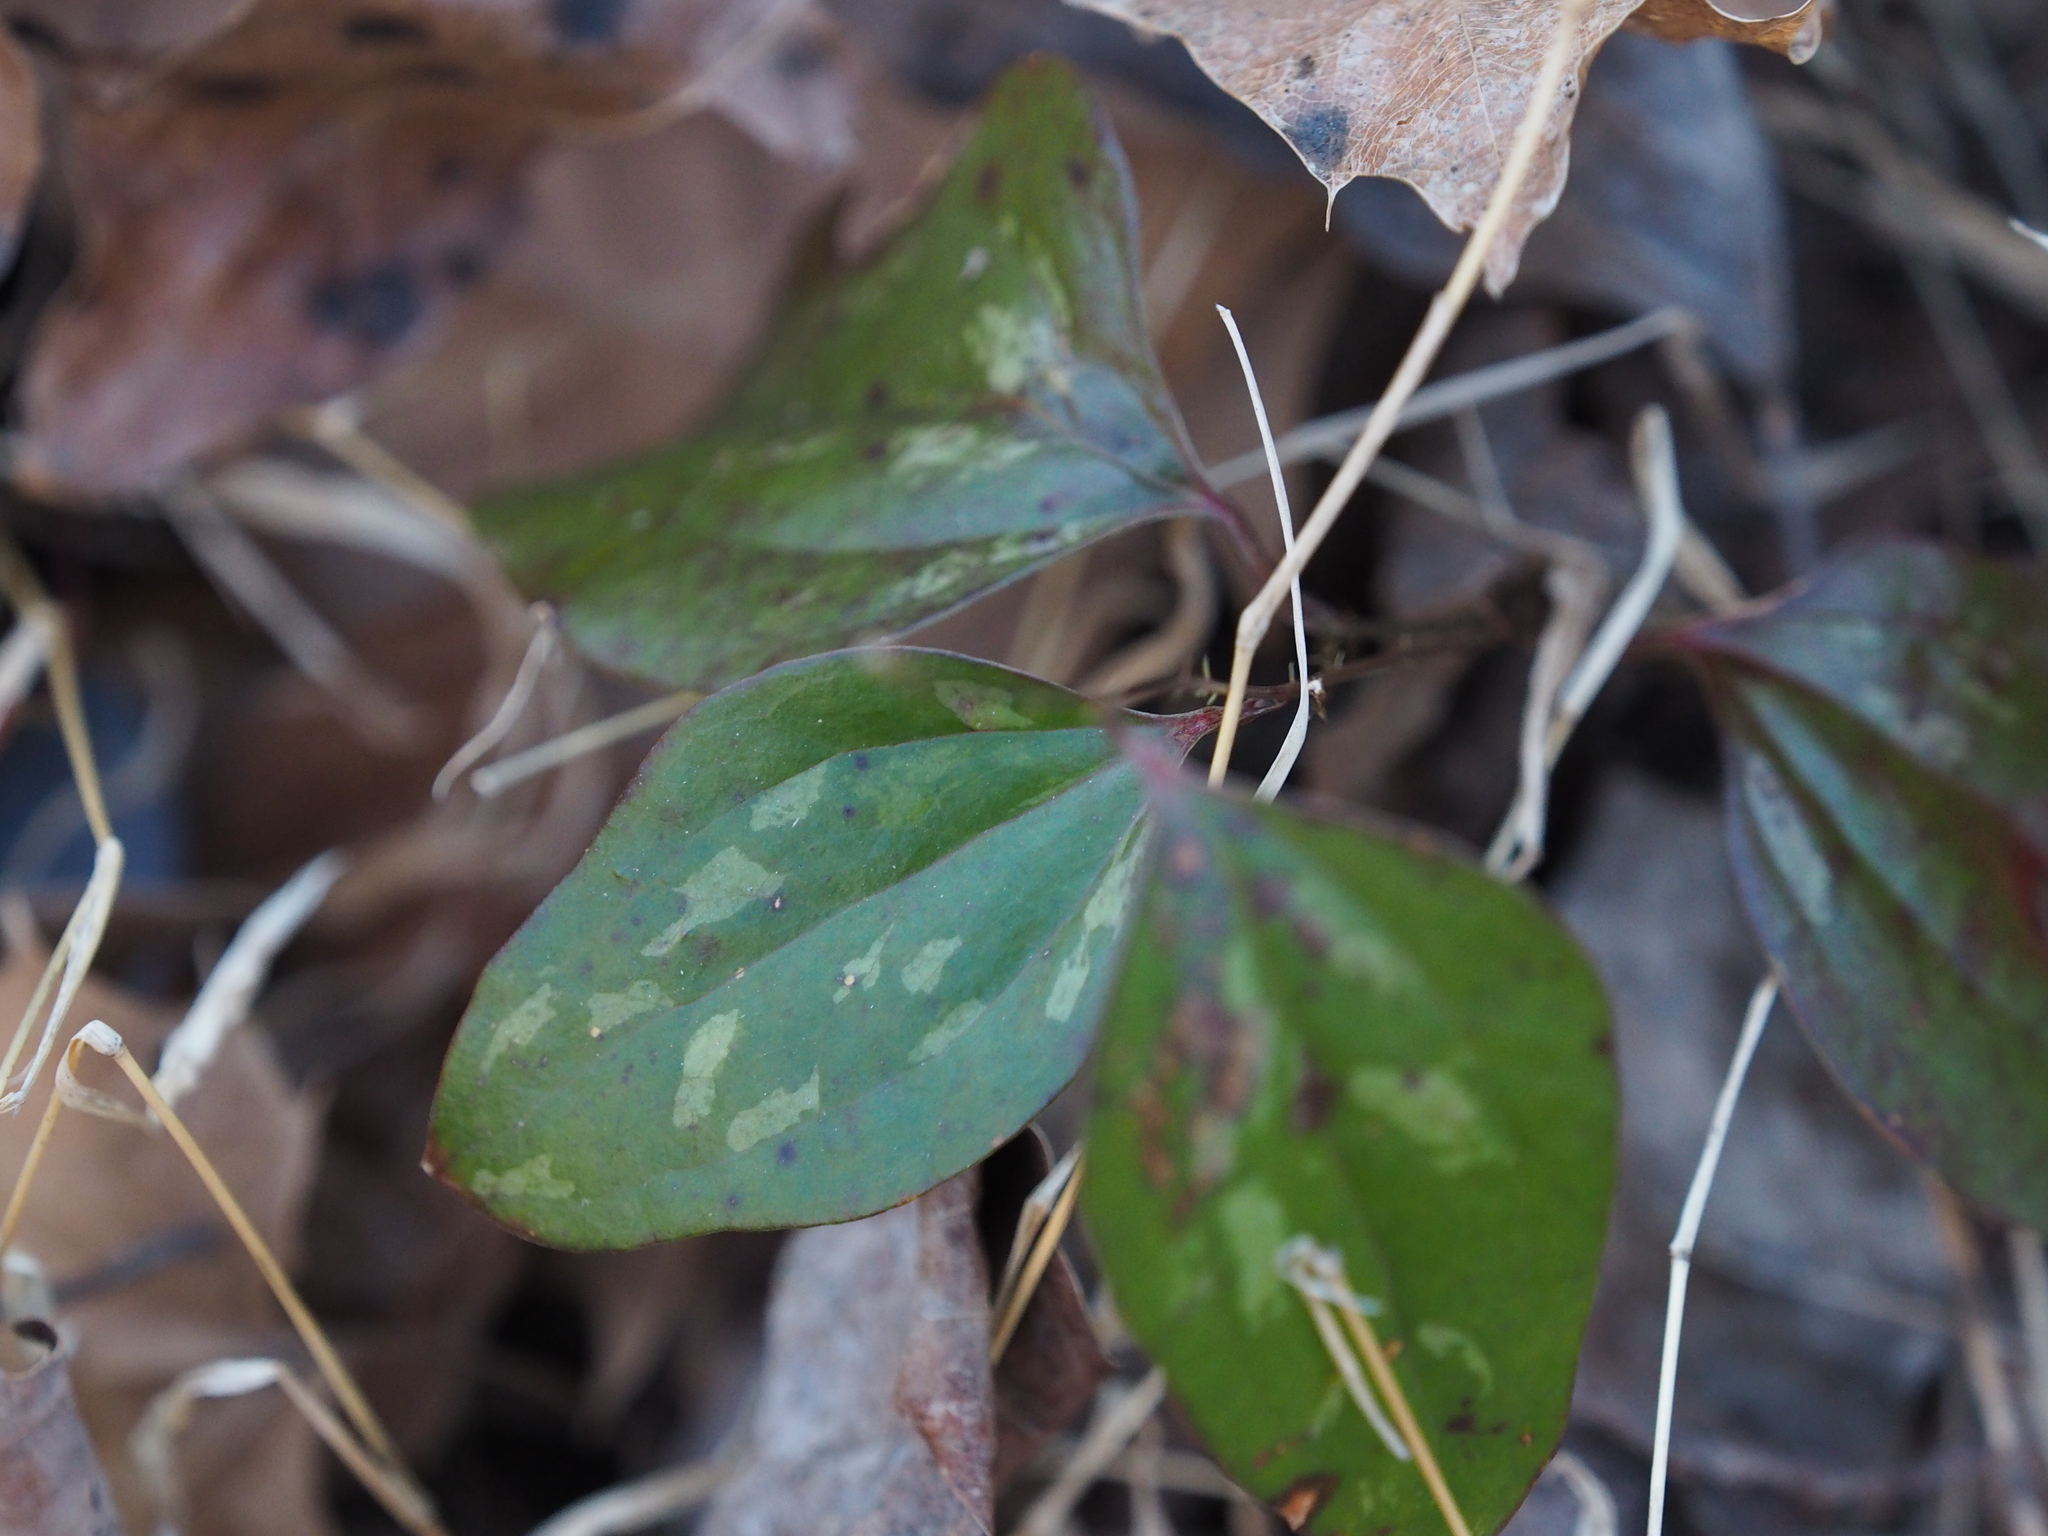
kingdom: Plantae
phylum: Tracheophyta
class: Liliopsida
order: Liliales
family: Smilacaceae
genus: Smilax
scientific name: Smilax glauca
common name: Cat greenbrier
